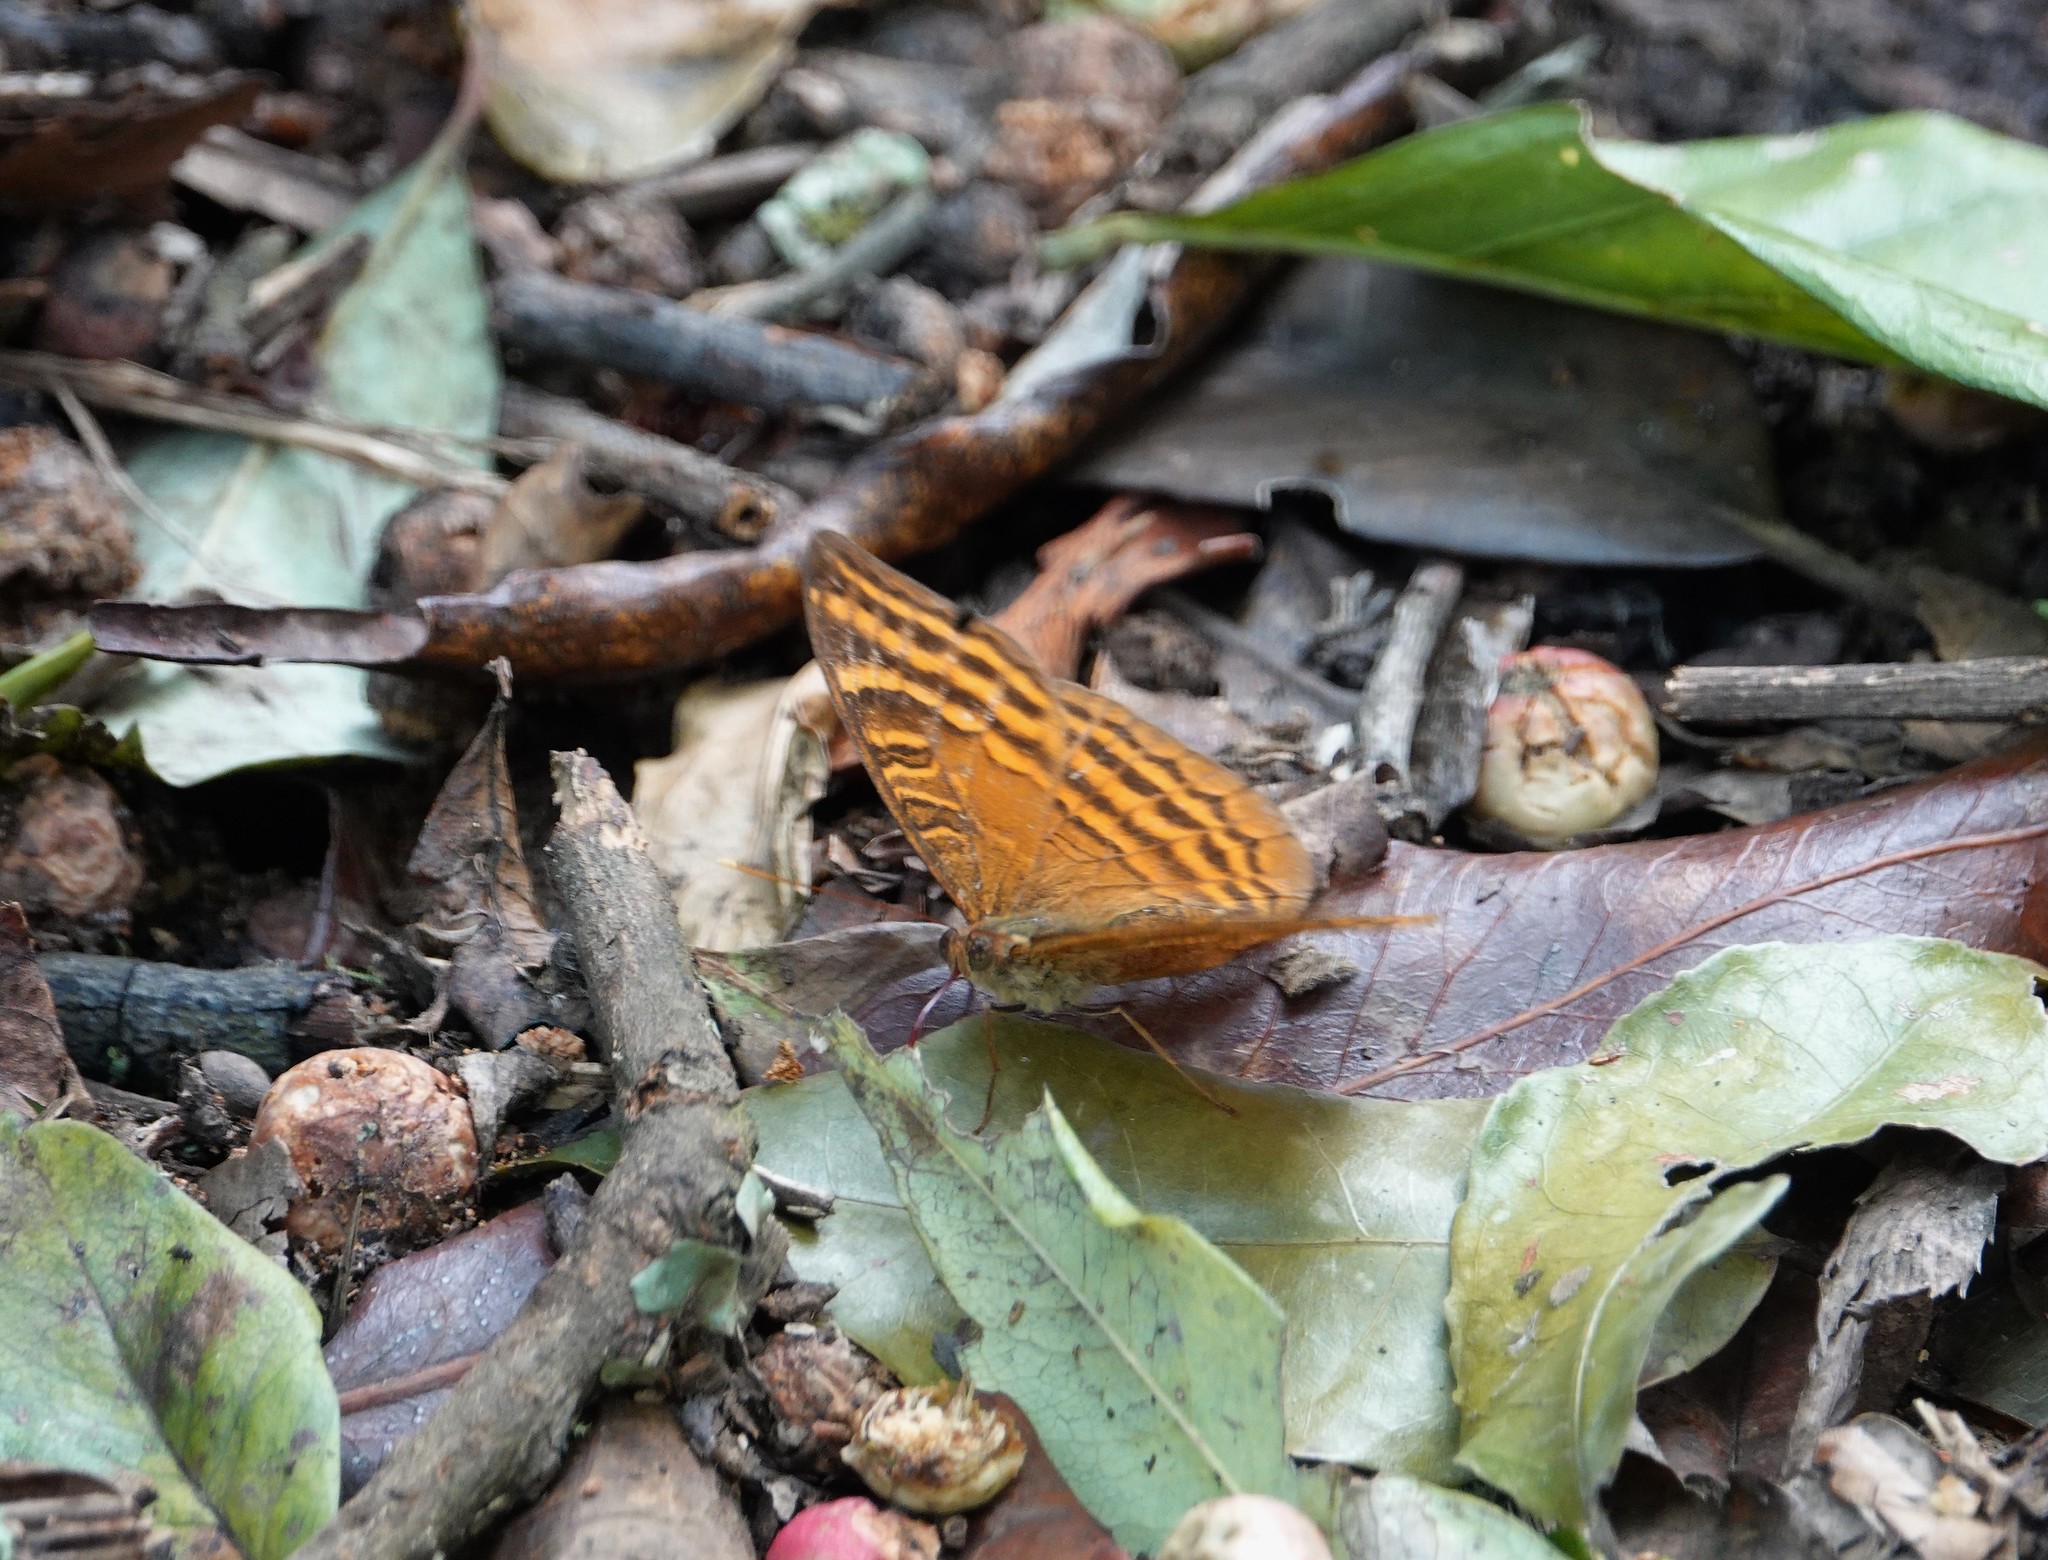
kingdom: Animalia
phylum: Arthropoda
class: Insecta
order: Lepidoptera
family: Nymphalidae
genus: Euriphene
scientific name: Euriphene amicia
